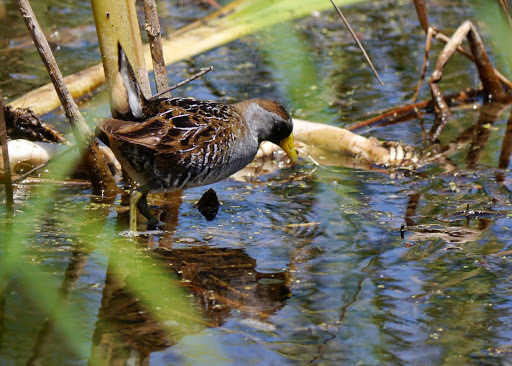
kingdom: Animalia
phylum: Chordata
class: Aves
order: Gruiformes
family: Rallidae
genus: Porzana
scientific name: Porzana carolina
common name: Sora
